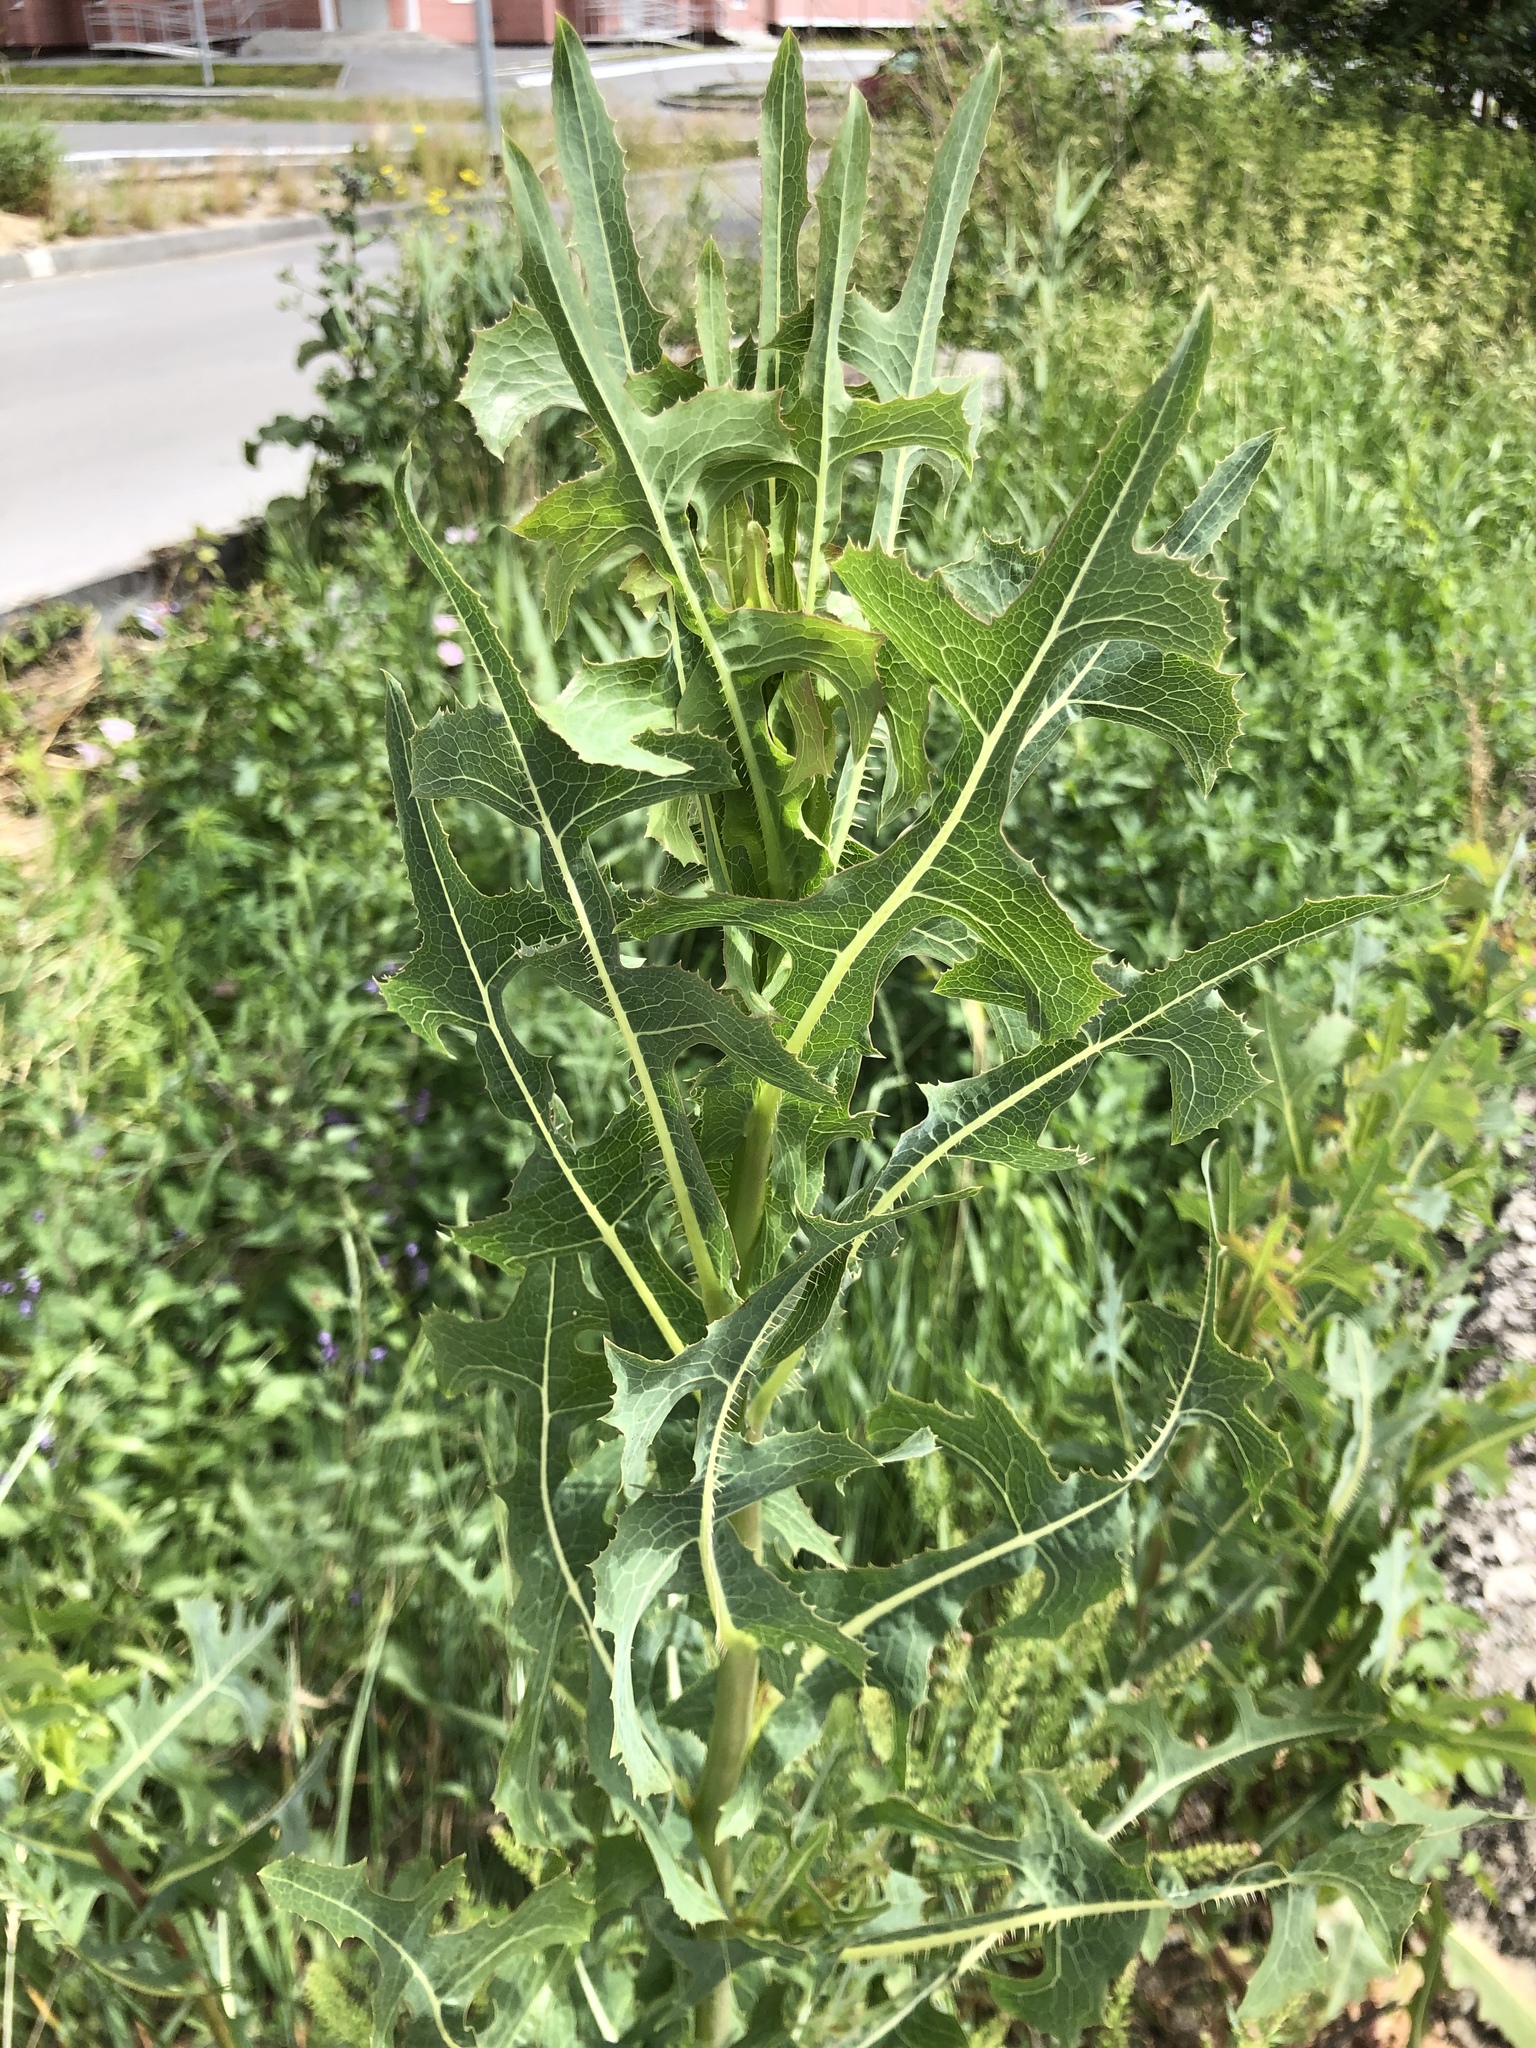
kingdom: Plantae
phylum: Tracheophyta
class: Magnoliopsida
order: Asterales
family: Asteraceae
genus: Lactuca
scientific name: Lactuca serriola
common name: Prickly lettuce
